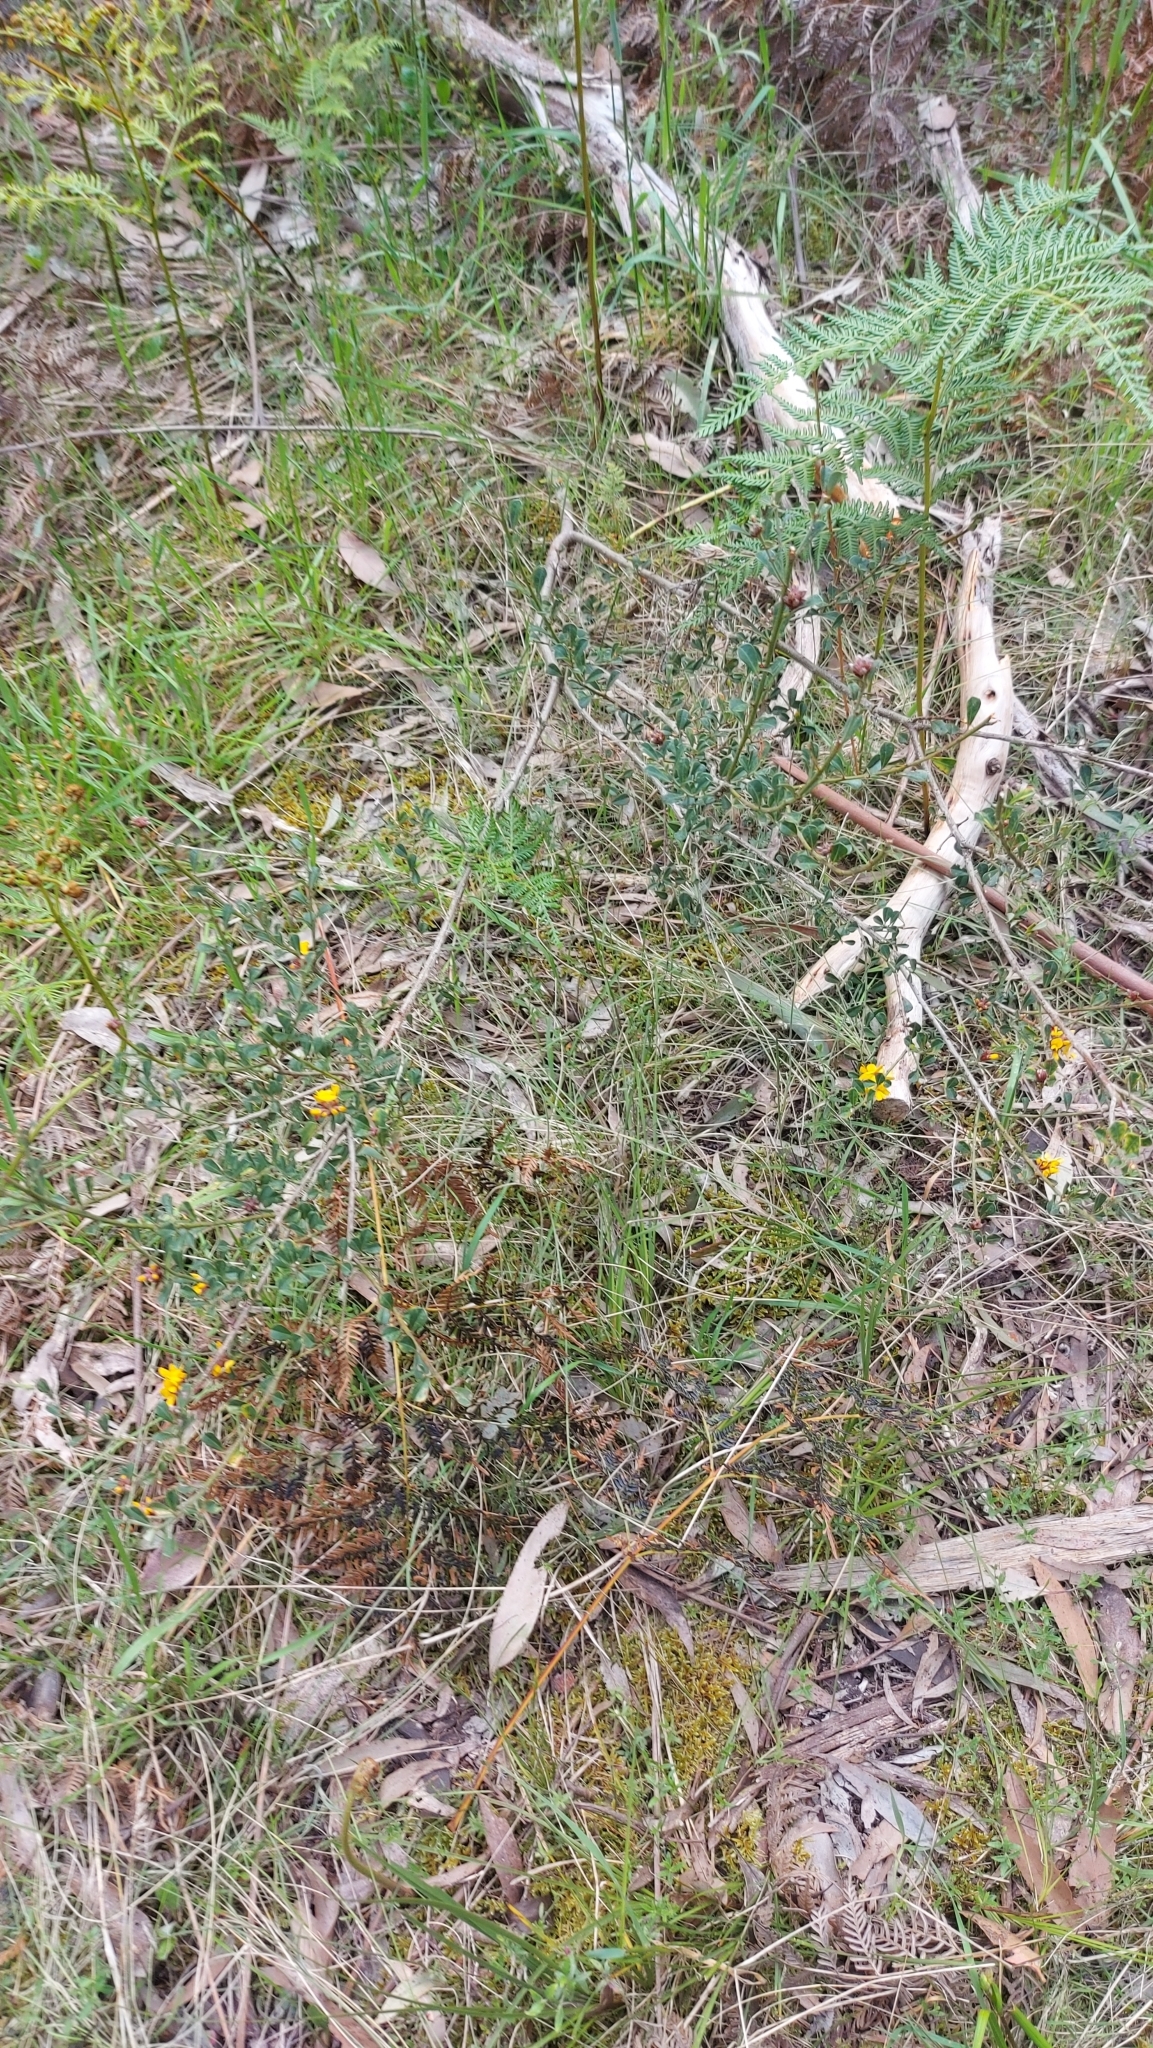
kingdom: Plantae
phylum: Tracheophyta
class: Magnoliopsida
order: Fabales
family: Fabaceae
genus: Pultenaea
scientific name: Pultenaea daphnoides
